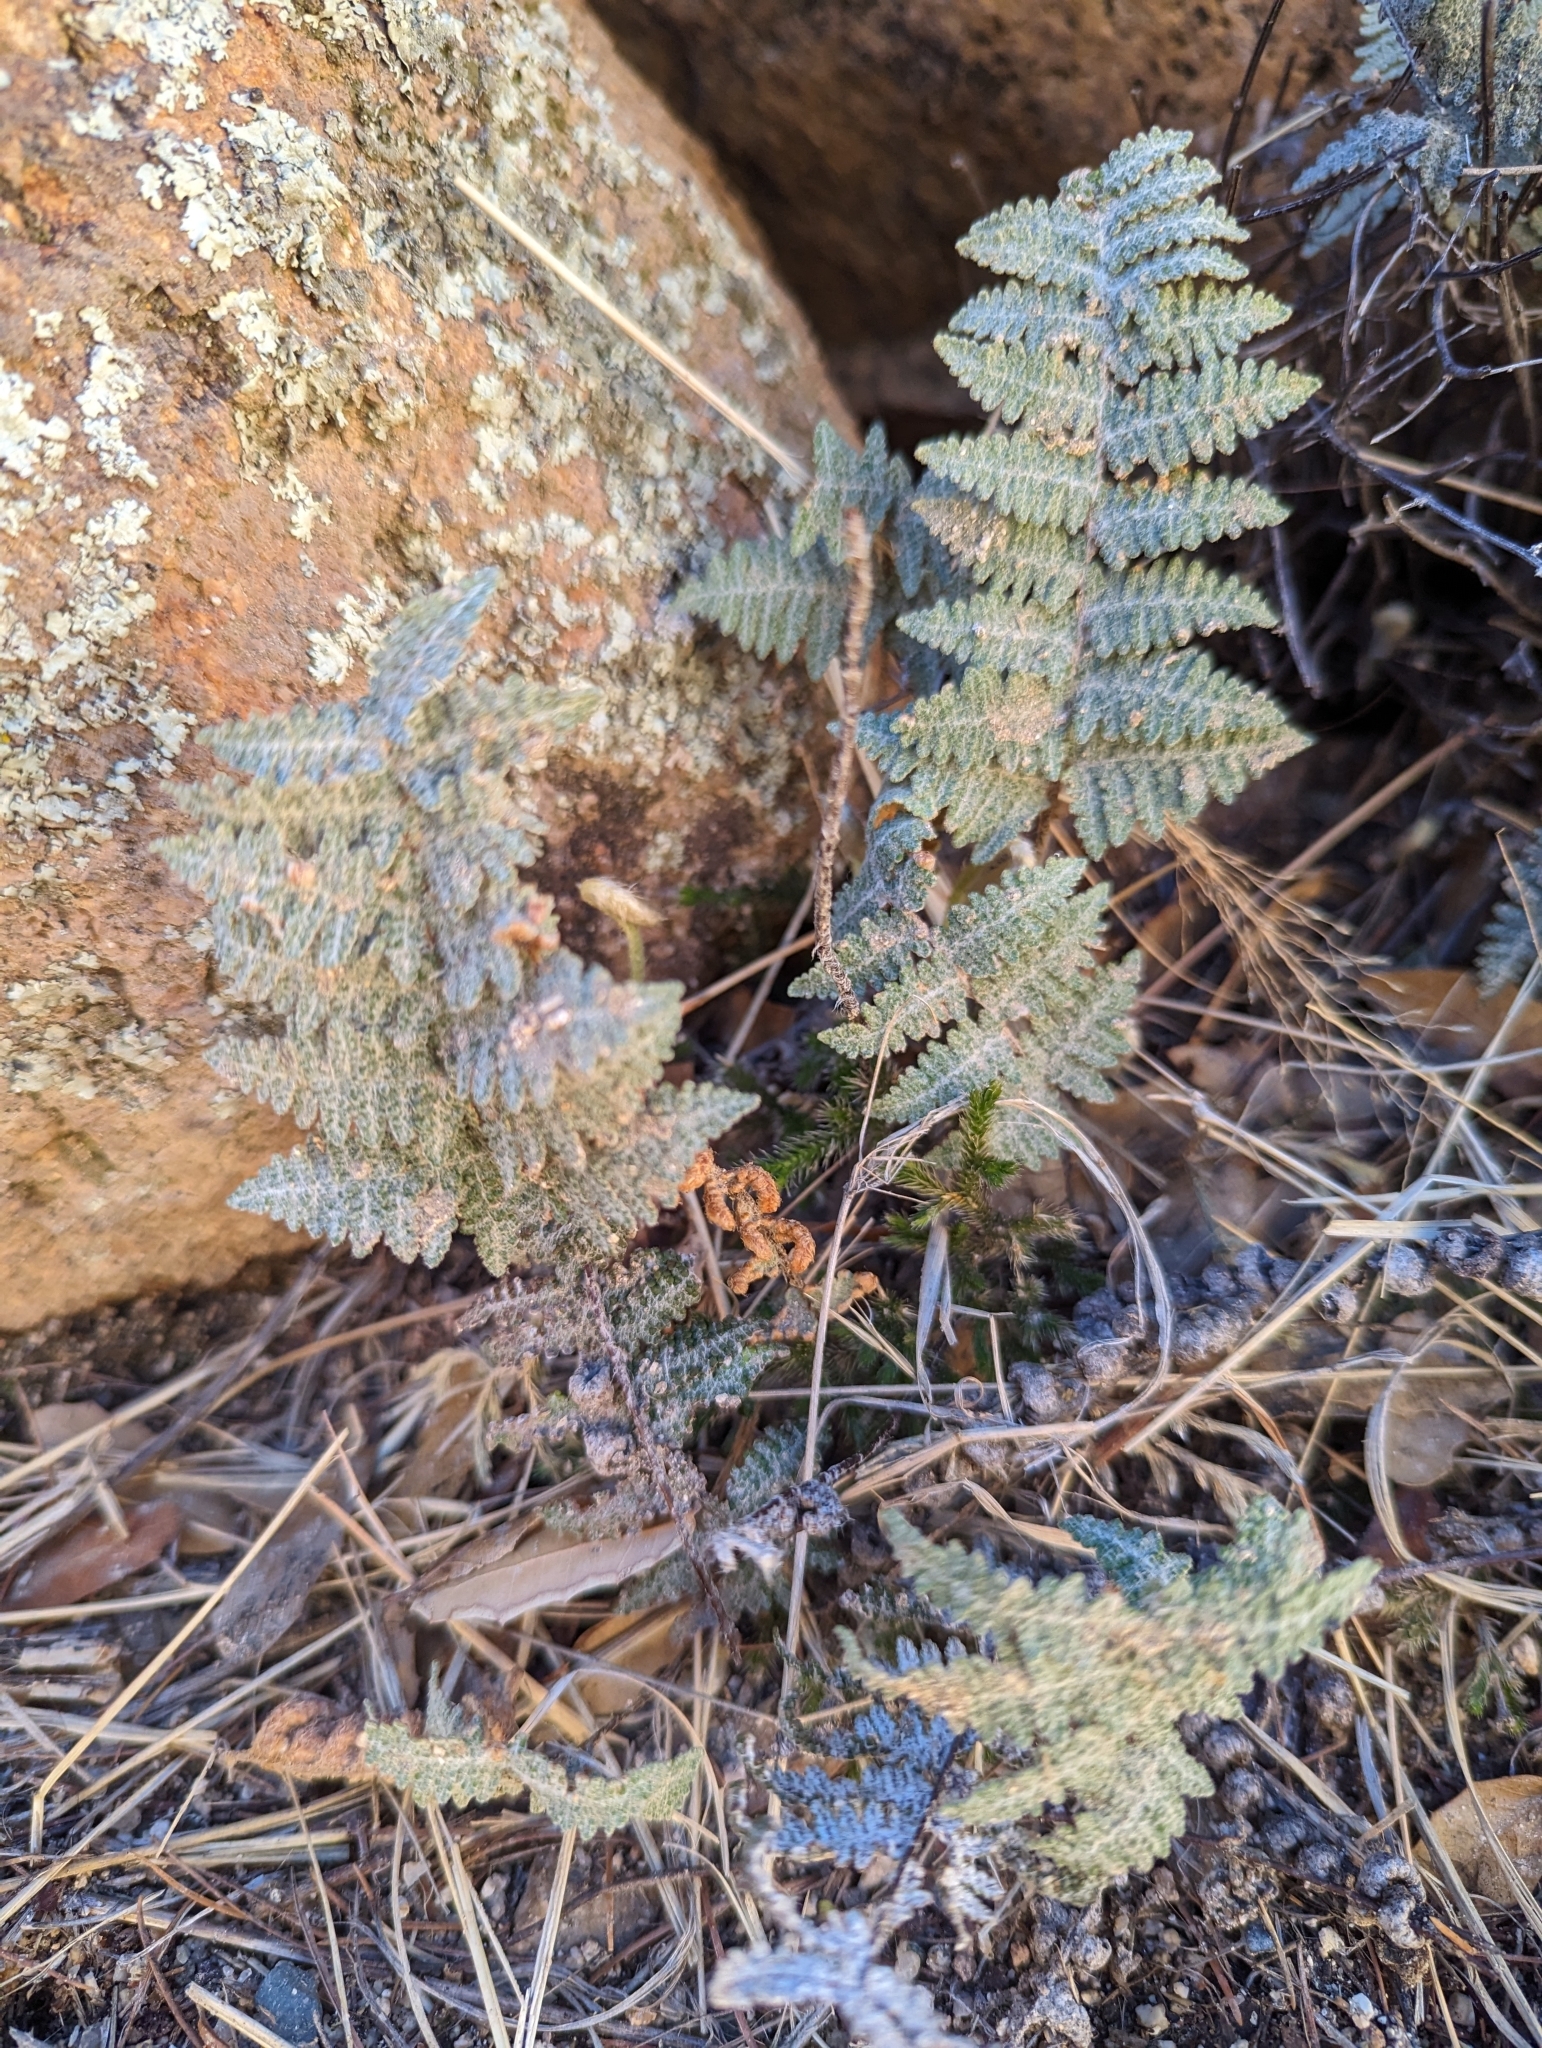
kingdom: Plantae
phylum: Tracheophyta
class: Polypodiopsida
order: Polypodiales
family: Pteridaceae
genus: Myriopteris
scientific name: Myriopteris lindheimeri
